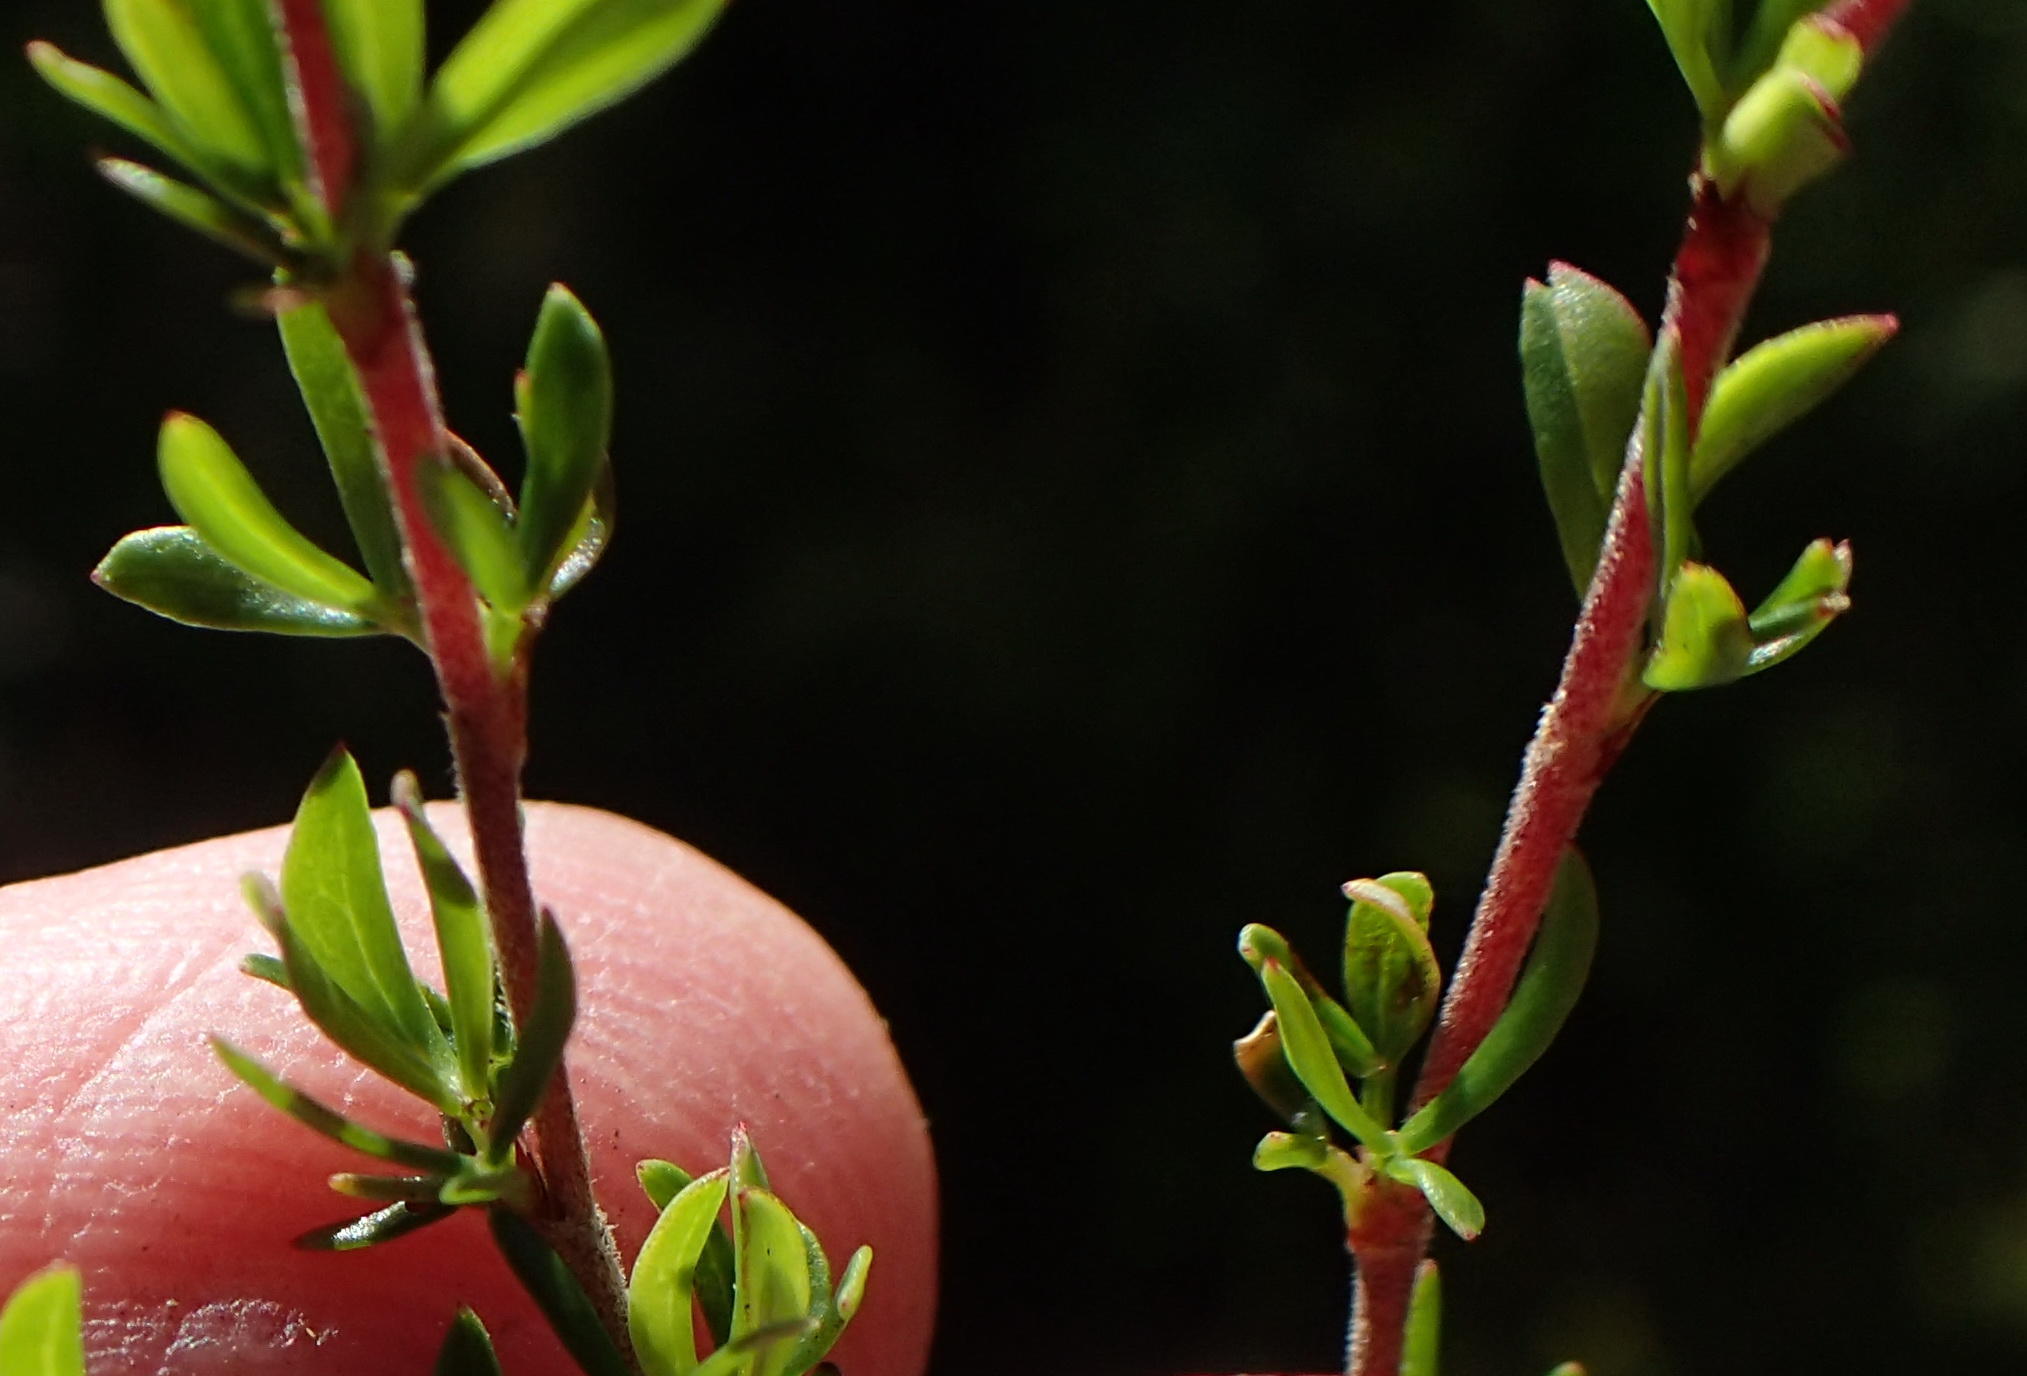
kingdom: Plantae
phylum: Tracheophyta
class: Magnoliopsida
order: Rosales
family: Rosaceae
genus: Cliffortia
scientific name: Cliffortia falcata
